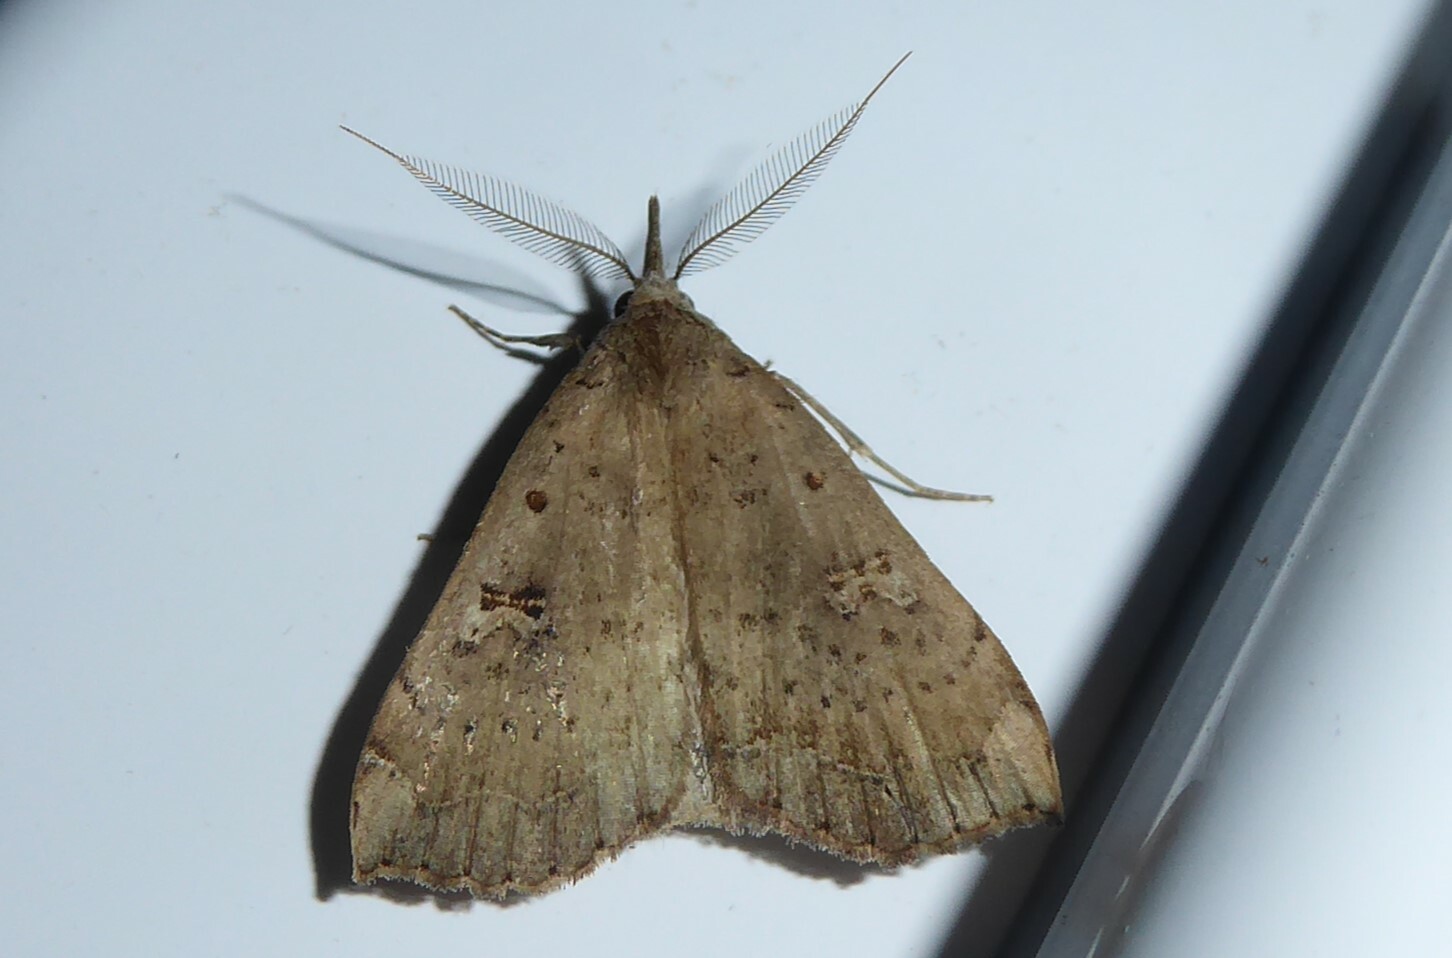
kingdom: Animalia
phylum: Arthropoda
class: Insecta
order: Lepidoptera
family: Erebidae
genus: Rhapsa
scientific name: Rhapsa scotosialis
